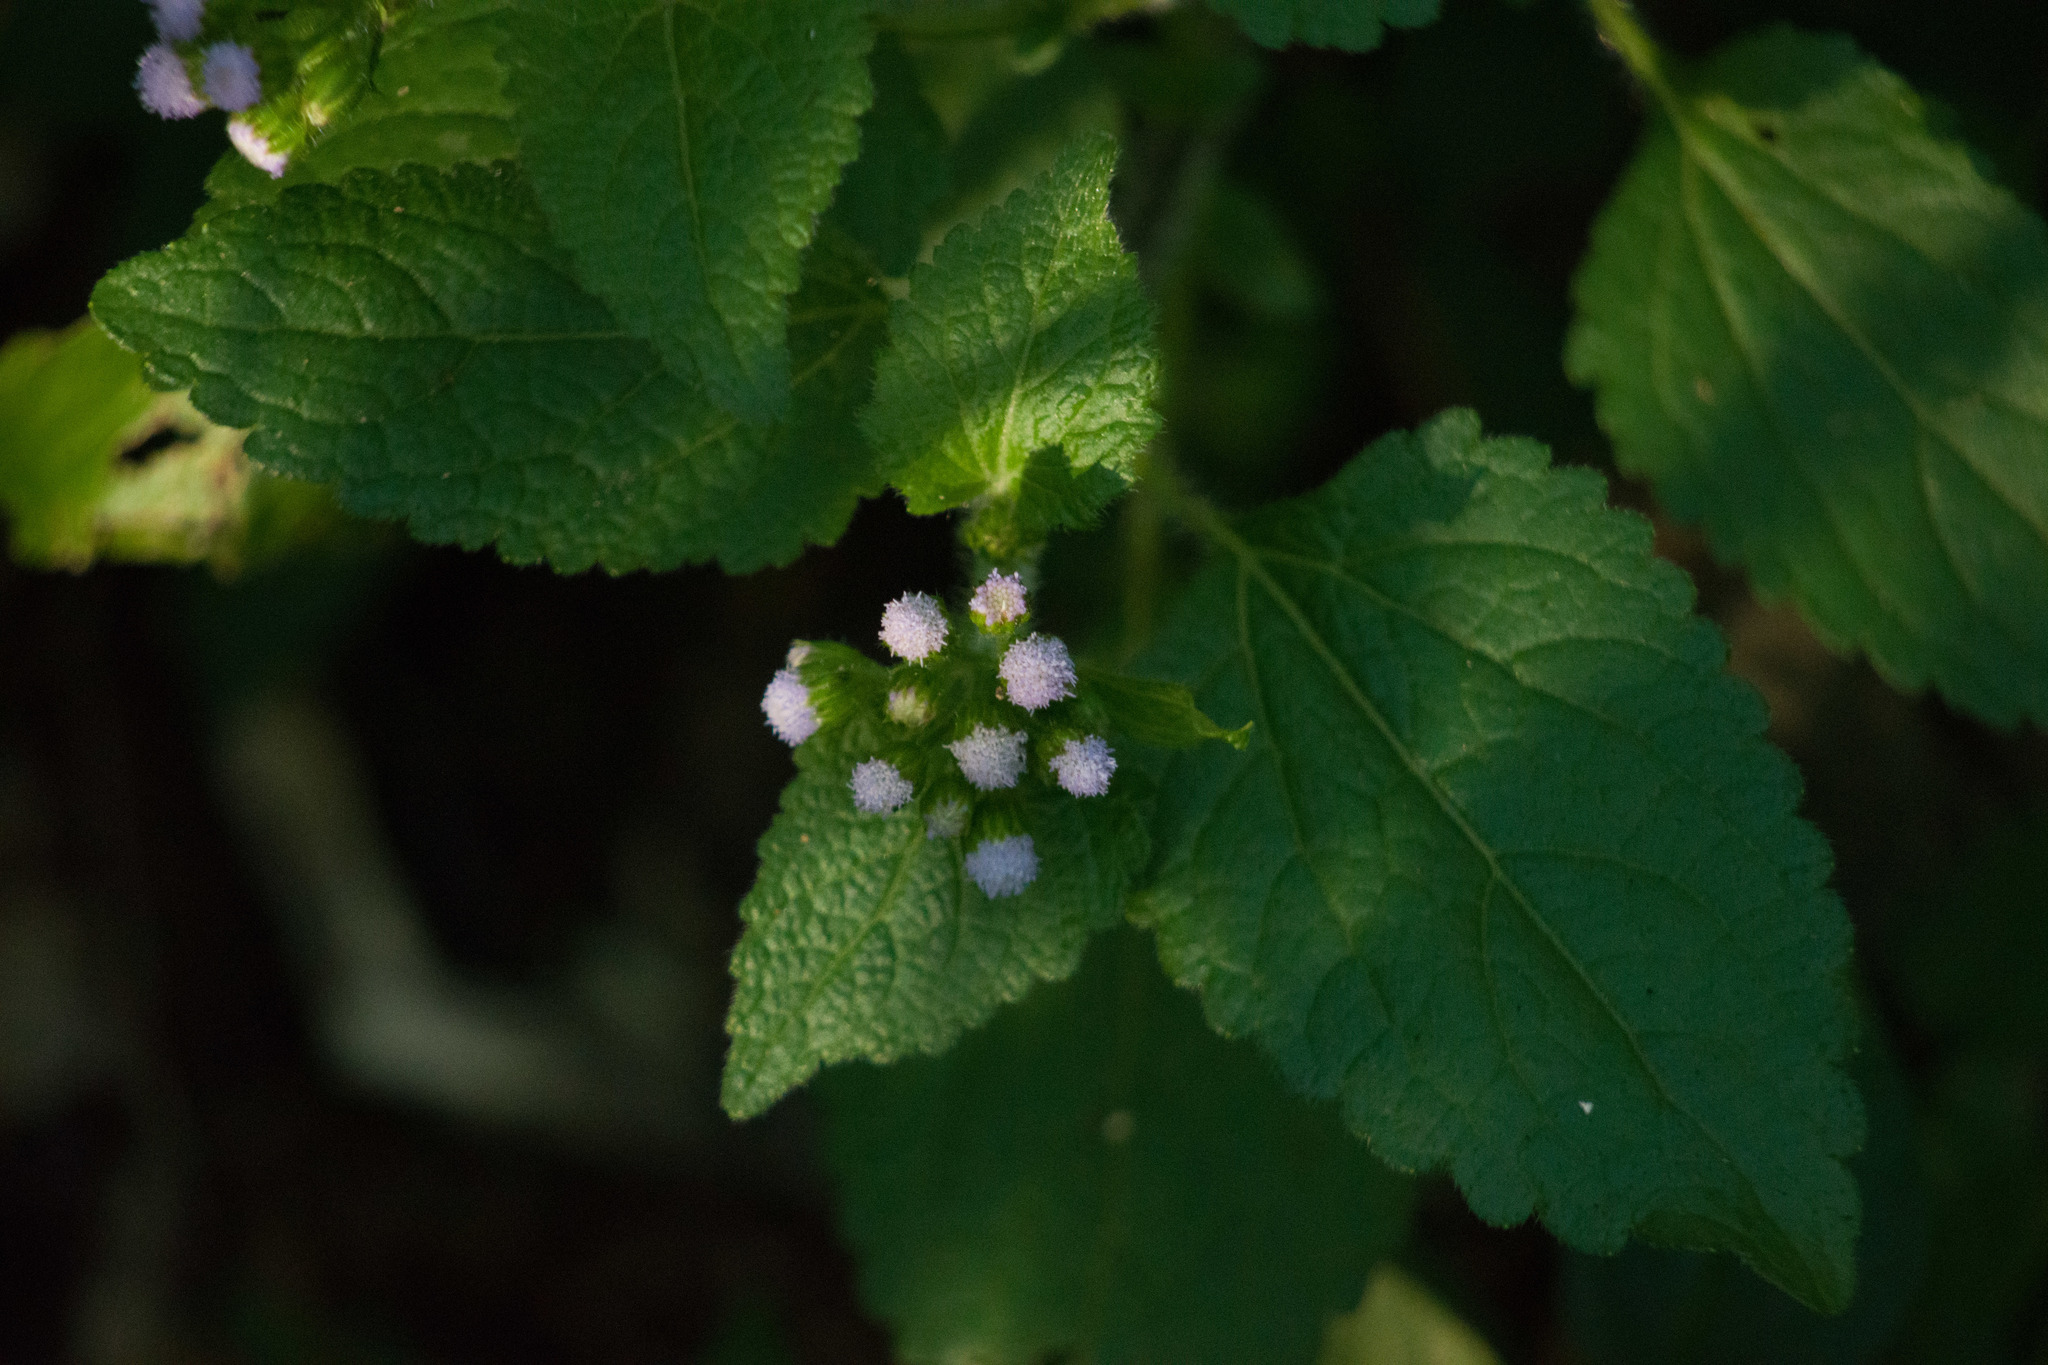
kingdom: Plantae
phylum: Tracheophyta
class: Magnoliopsida
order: Asterales
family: Asteraceae
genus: Ageratum
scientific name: Ageratum conyzoides
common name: Tropical whiteweed
